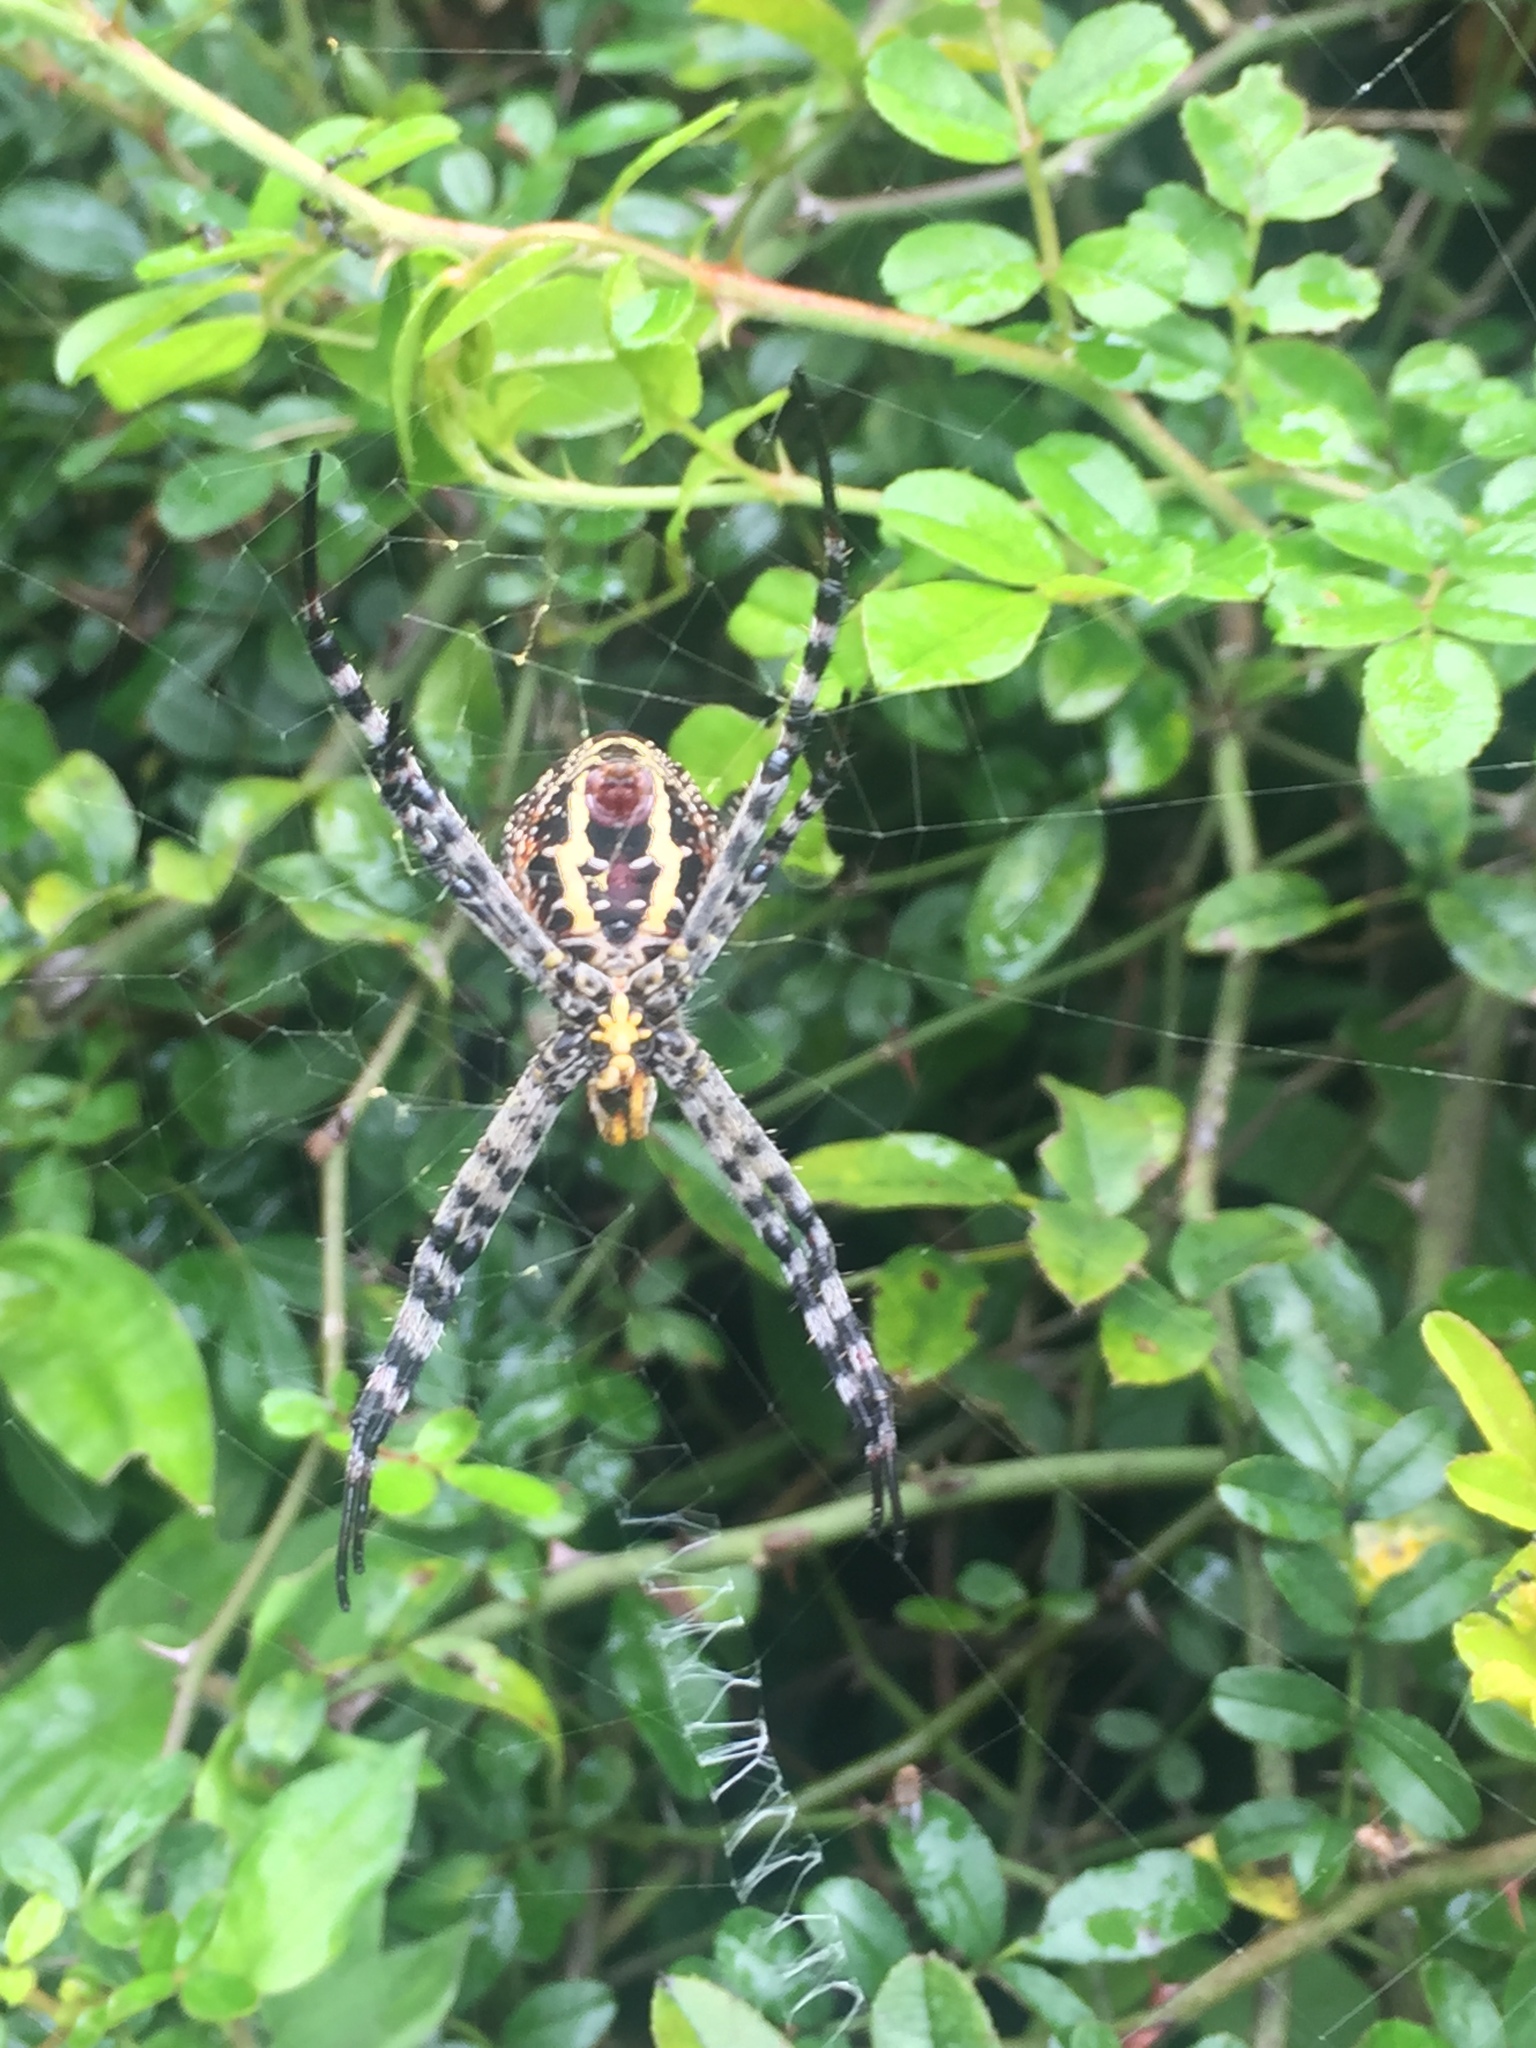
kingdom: Animalia
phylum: Arthropoda
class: Arachnida
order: Araneae
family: Araneidae
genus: Argiope
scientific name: Argiope aemula
